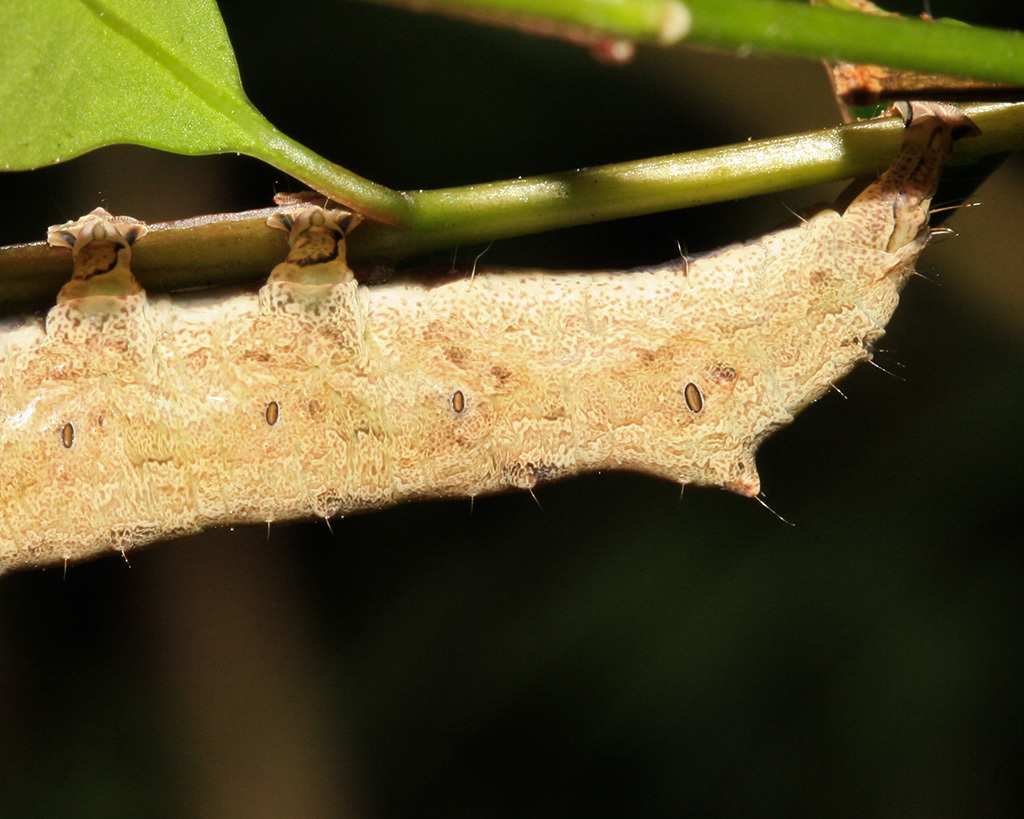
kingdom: Animalia
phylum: Arthropoda
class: Insecta
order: Lepidoptera
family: Erebidae
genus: Achaea
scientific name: Achaea echo
